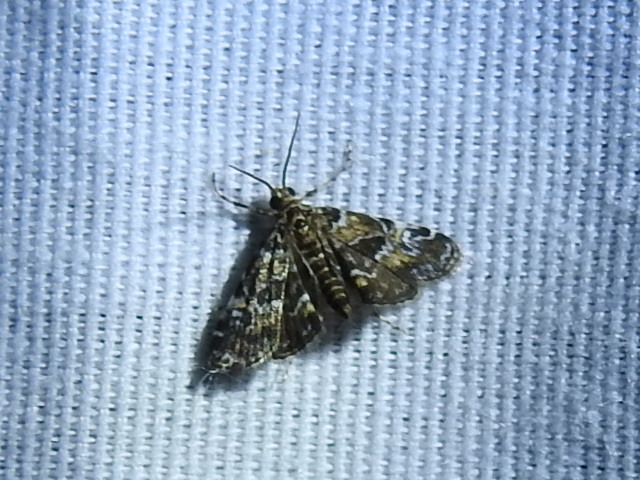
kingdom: Animalia
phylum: Arthropoda
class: Insecta
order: Lepidoptera
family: Crambidae
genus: Elophila
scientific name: Elophila obliteralis
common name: Waterlily leafcutter moth
